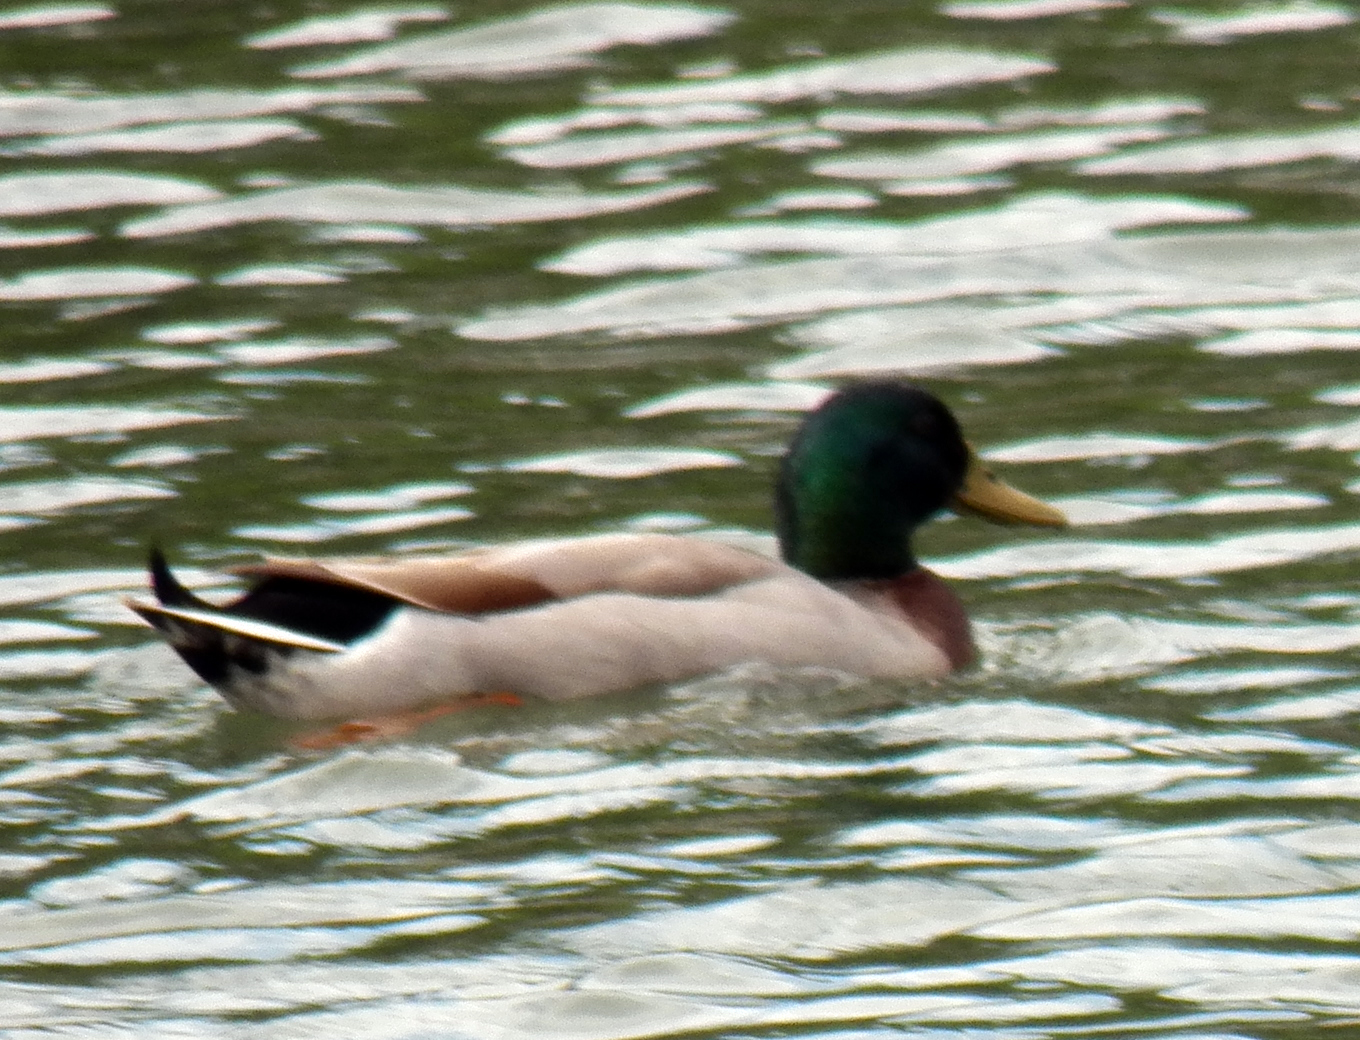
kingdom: Animalia
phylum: Chordata
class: Aves
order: Anseriformes
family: Anatidae
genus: Anas
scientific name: Anas platyrhynchos
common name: Mallard
